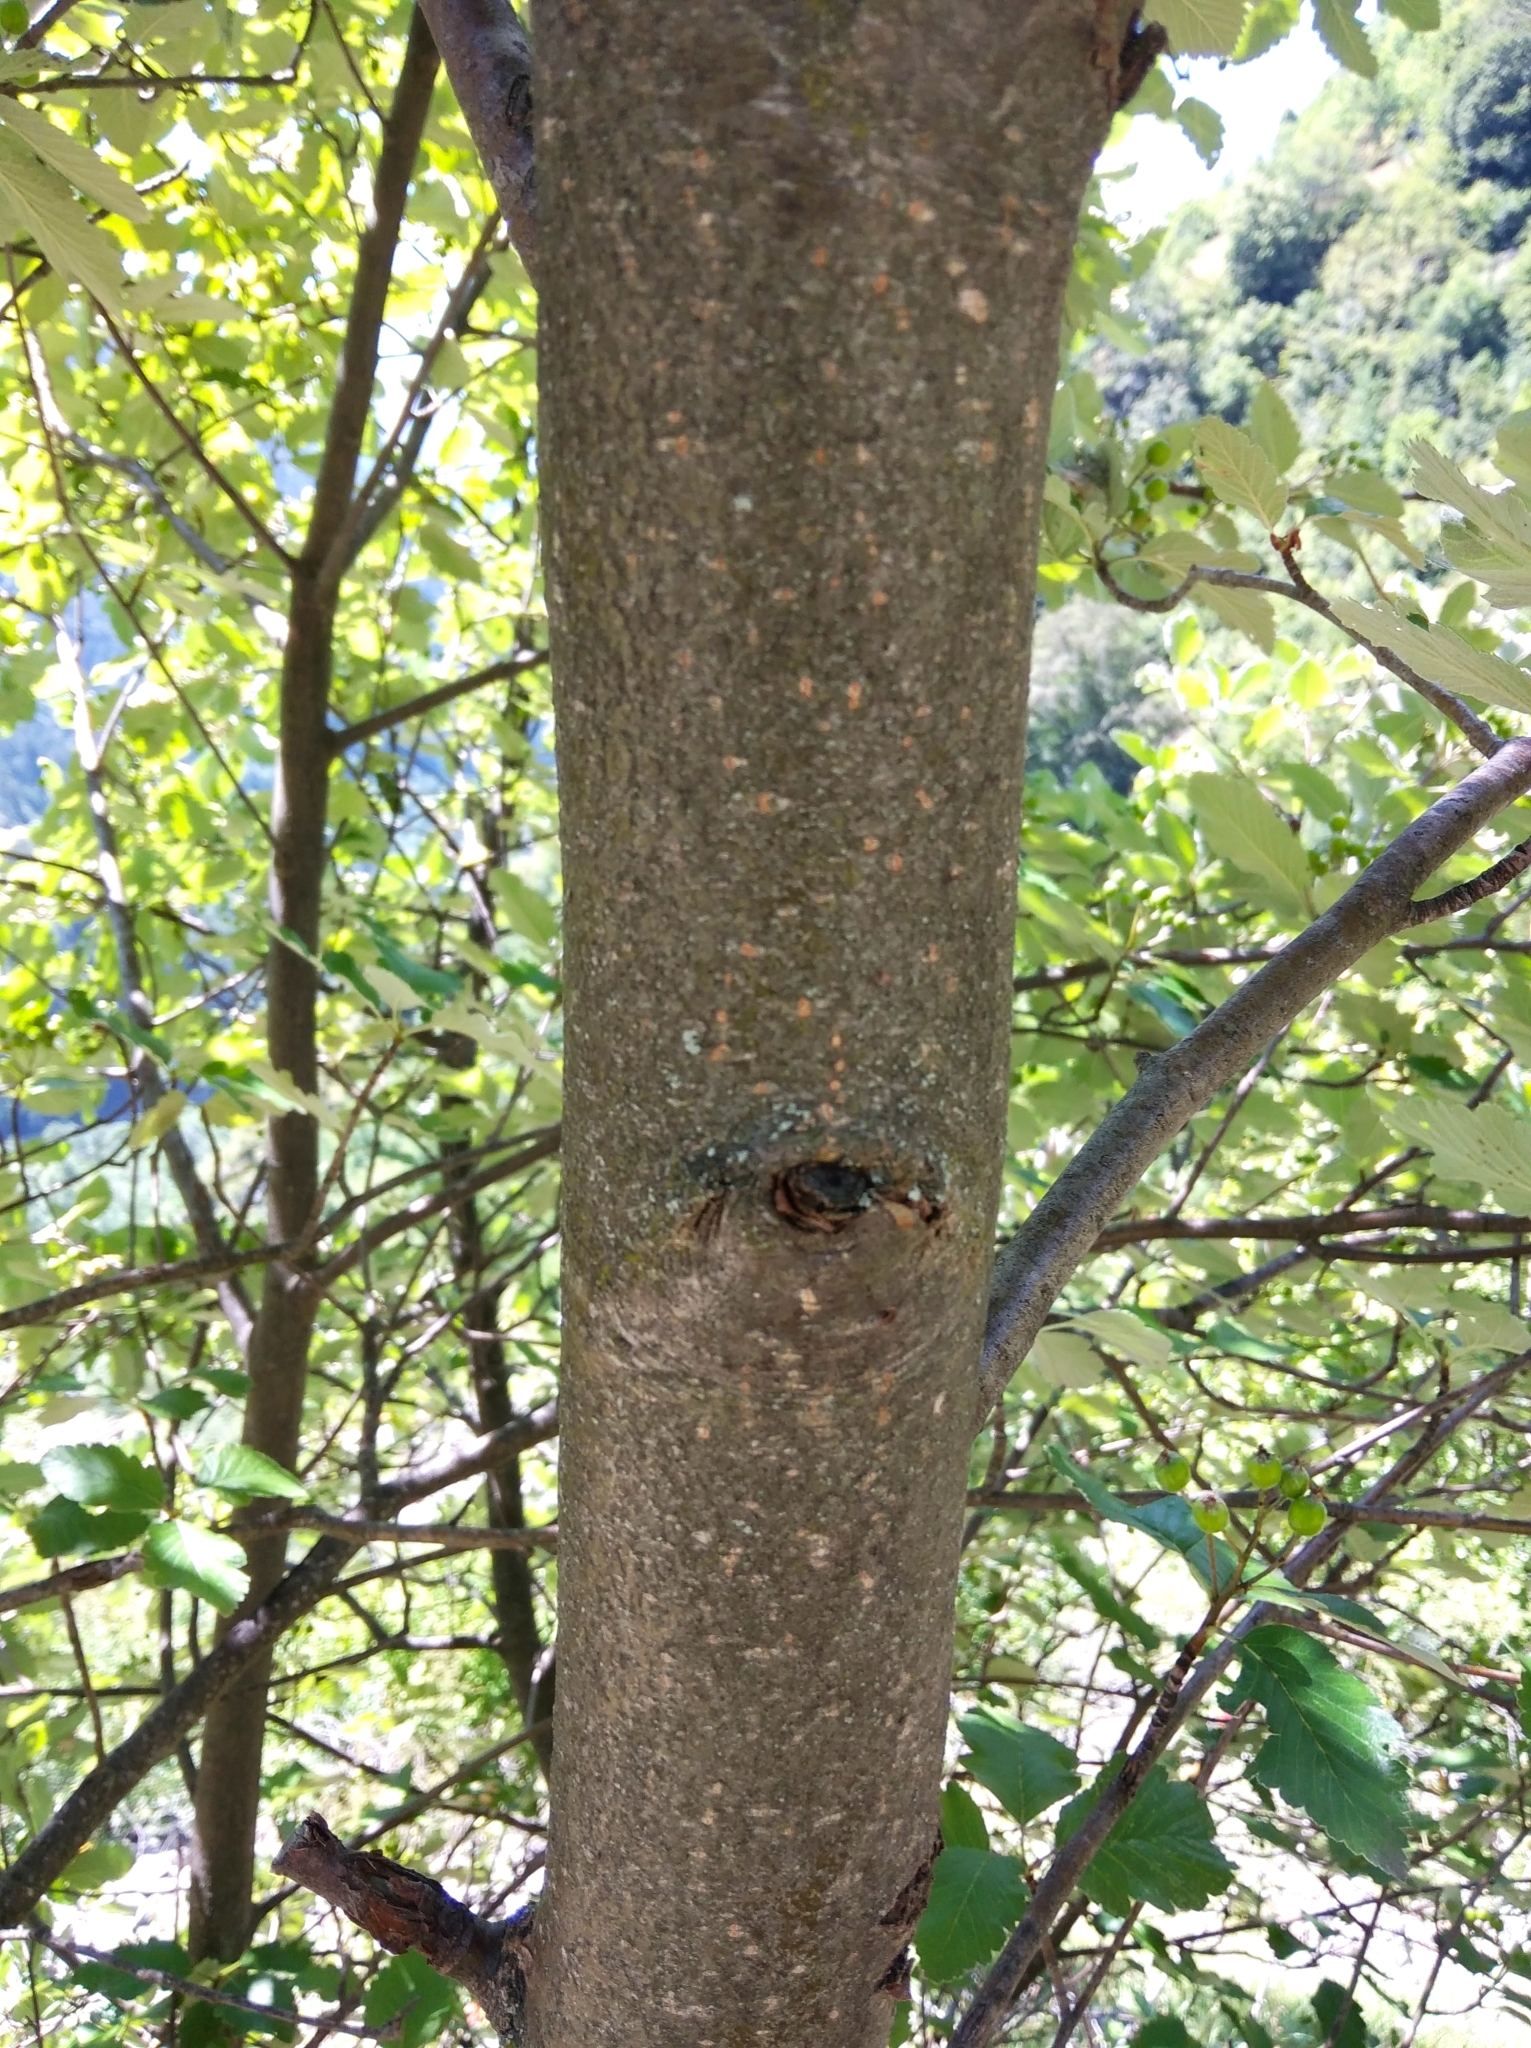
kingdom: Plantae
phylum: Tracheophyta
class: Magnoliopsida
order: Rosales
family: Rosaceae
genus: Hedlundia
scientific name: Hedlundia mougeotii
